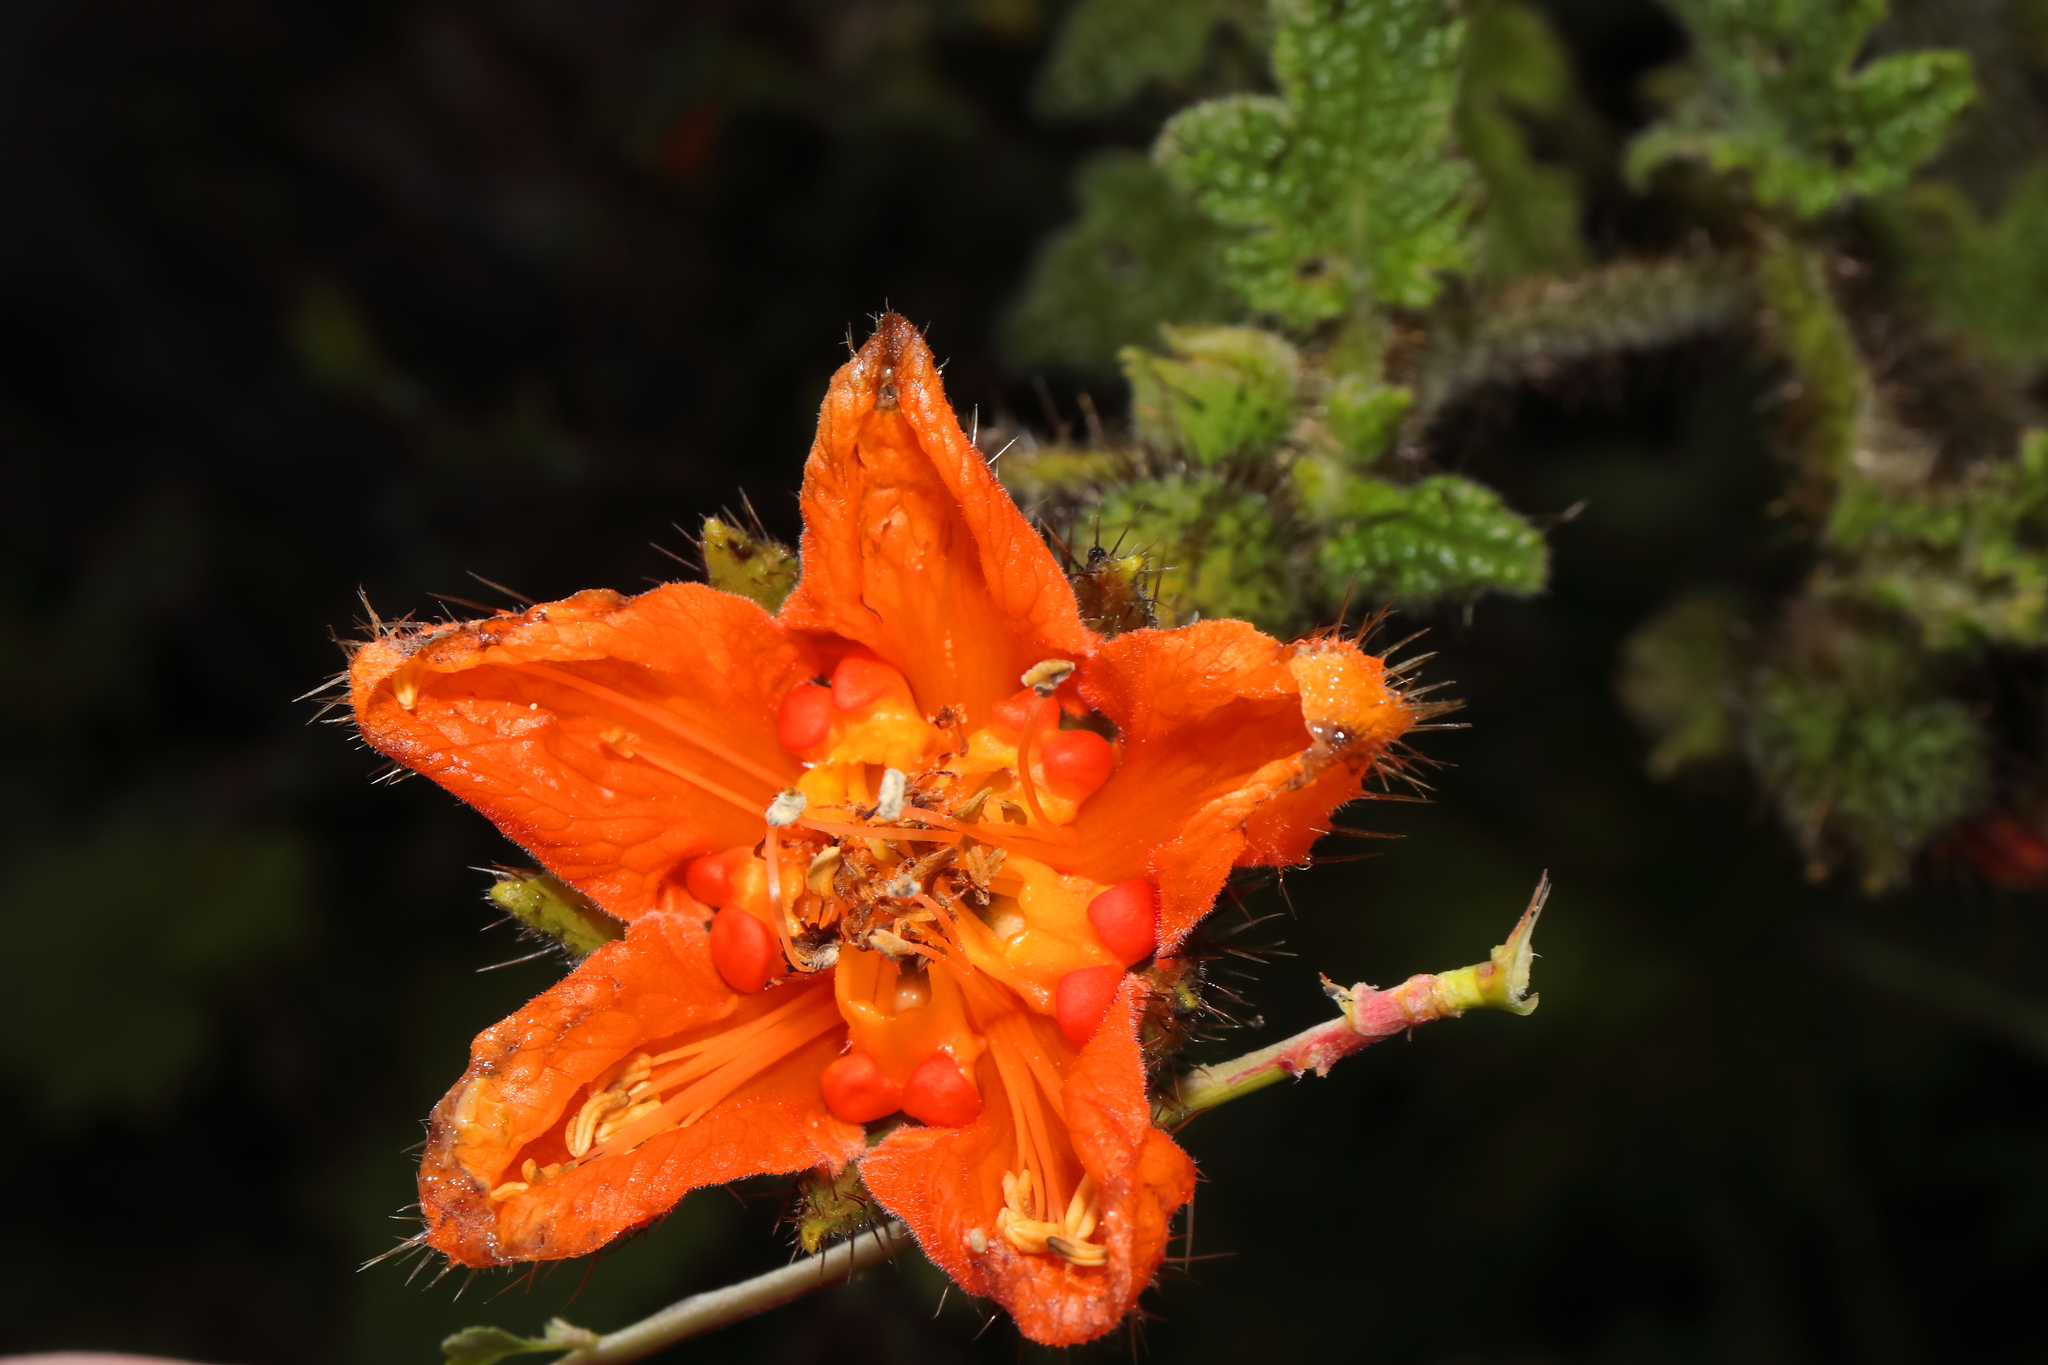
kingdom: Plantae
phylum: Tracheophyta
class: Magnoliopsida
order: Cornales
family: Loasaceae
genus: Nasa
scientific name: Nasa ranunculifolia
